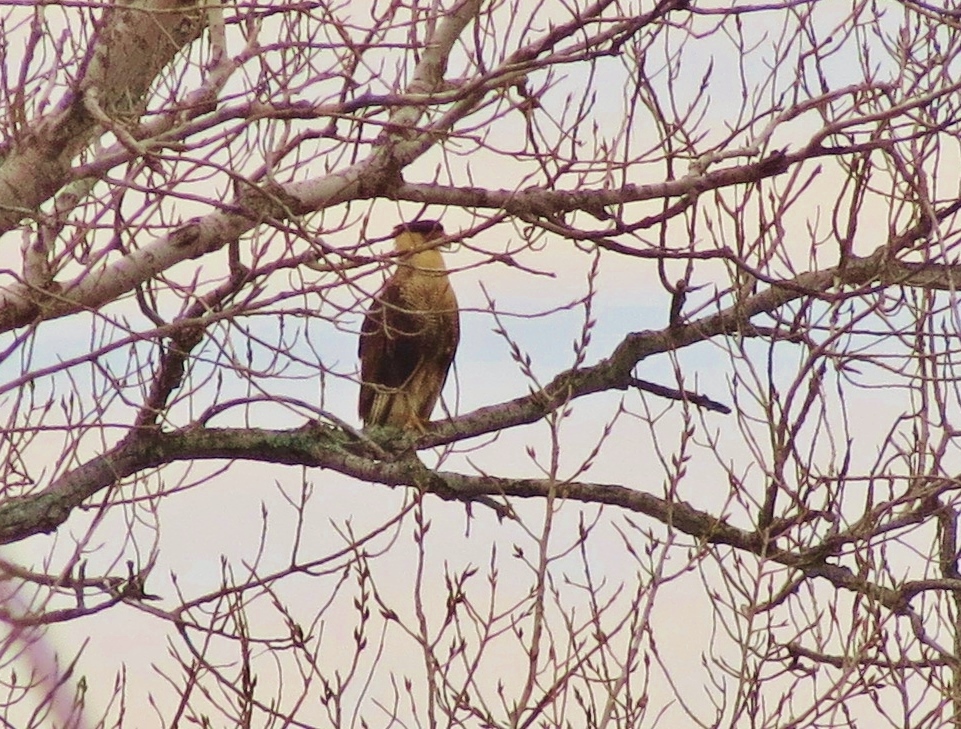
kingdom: Animalia
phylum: Chordata
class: Aves
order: Falconiformes
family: Falconidae
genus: Caracara
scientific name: Caracara plancus
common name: Southern caracara
